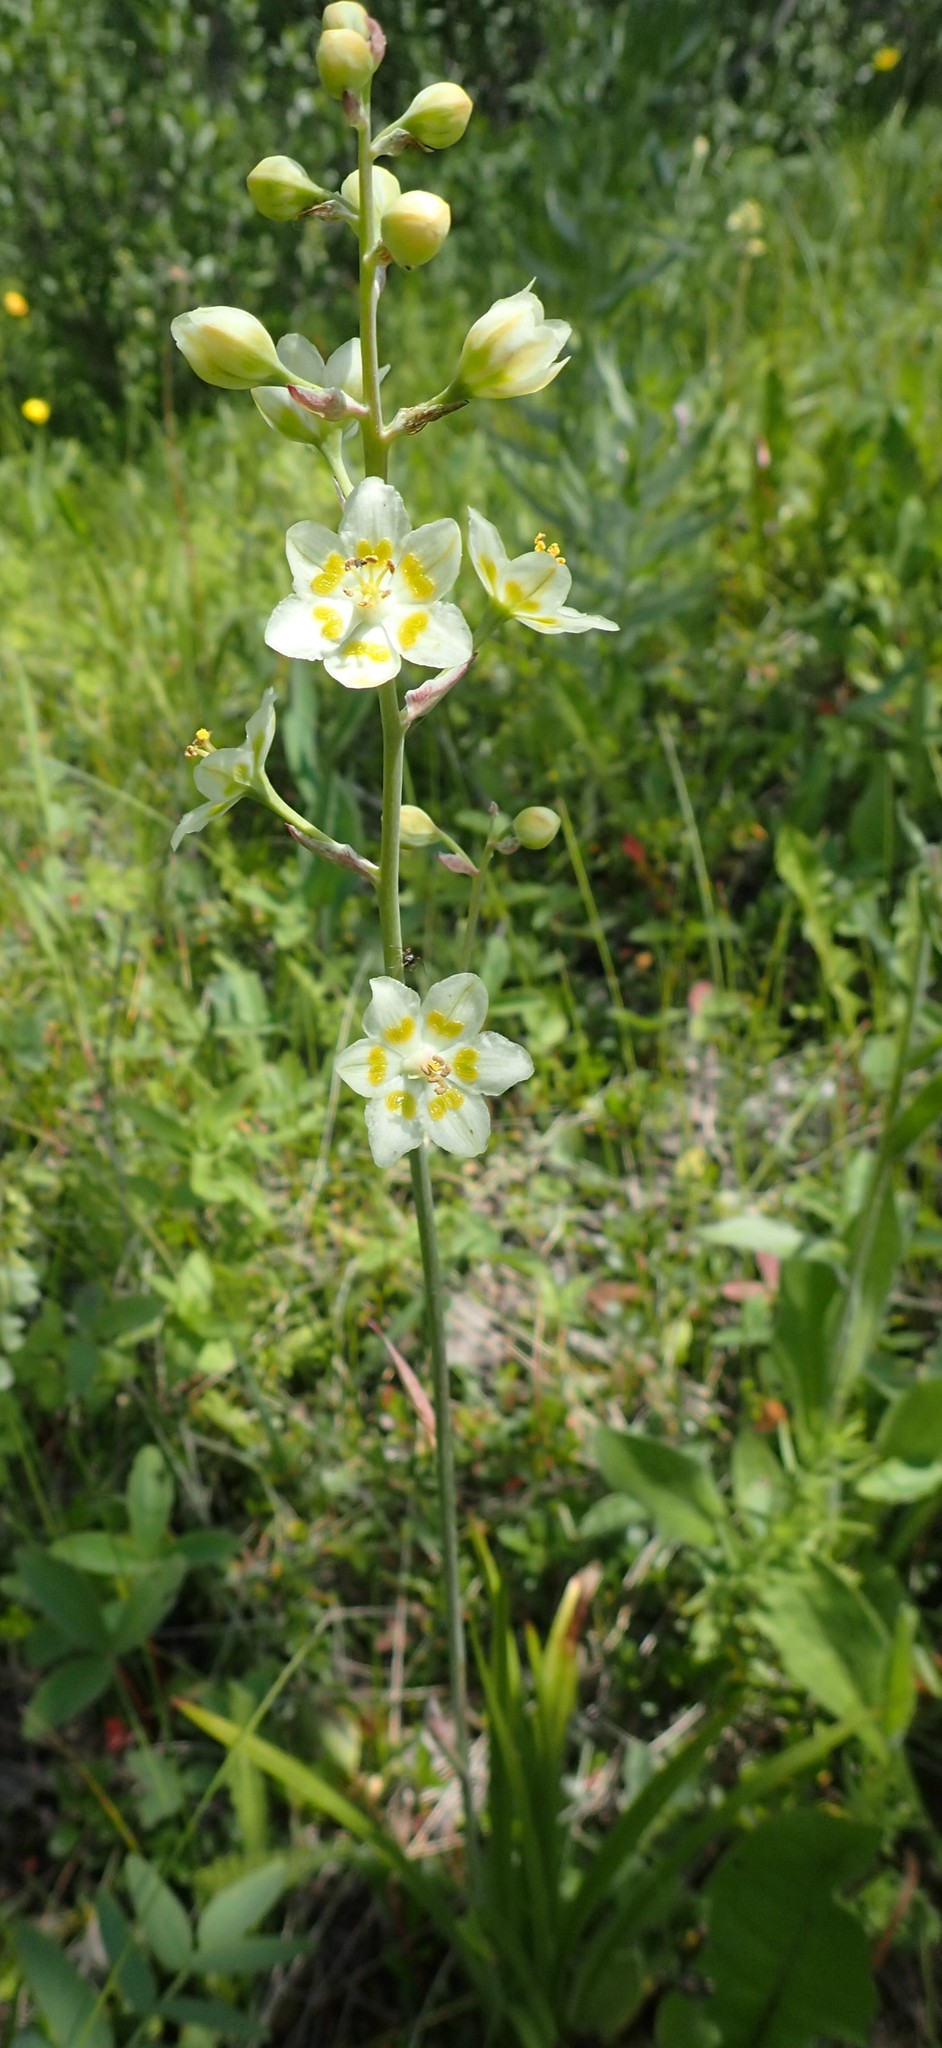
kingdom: Plantae
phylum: Tracheophyta
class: Liliopsida
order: Liliales
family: Melanthiaceae
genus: Anticlea
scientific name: Anticlea elegans
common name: Mountain death camas
